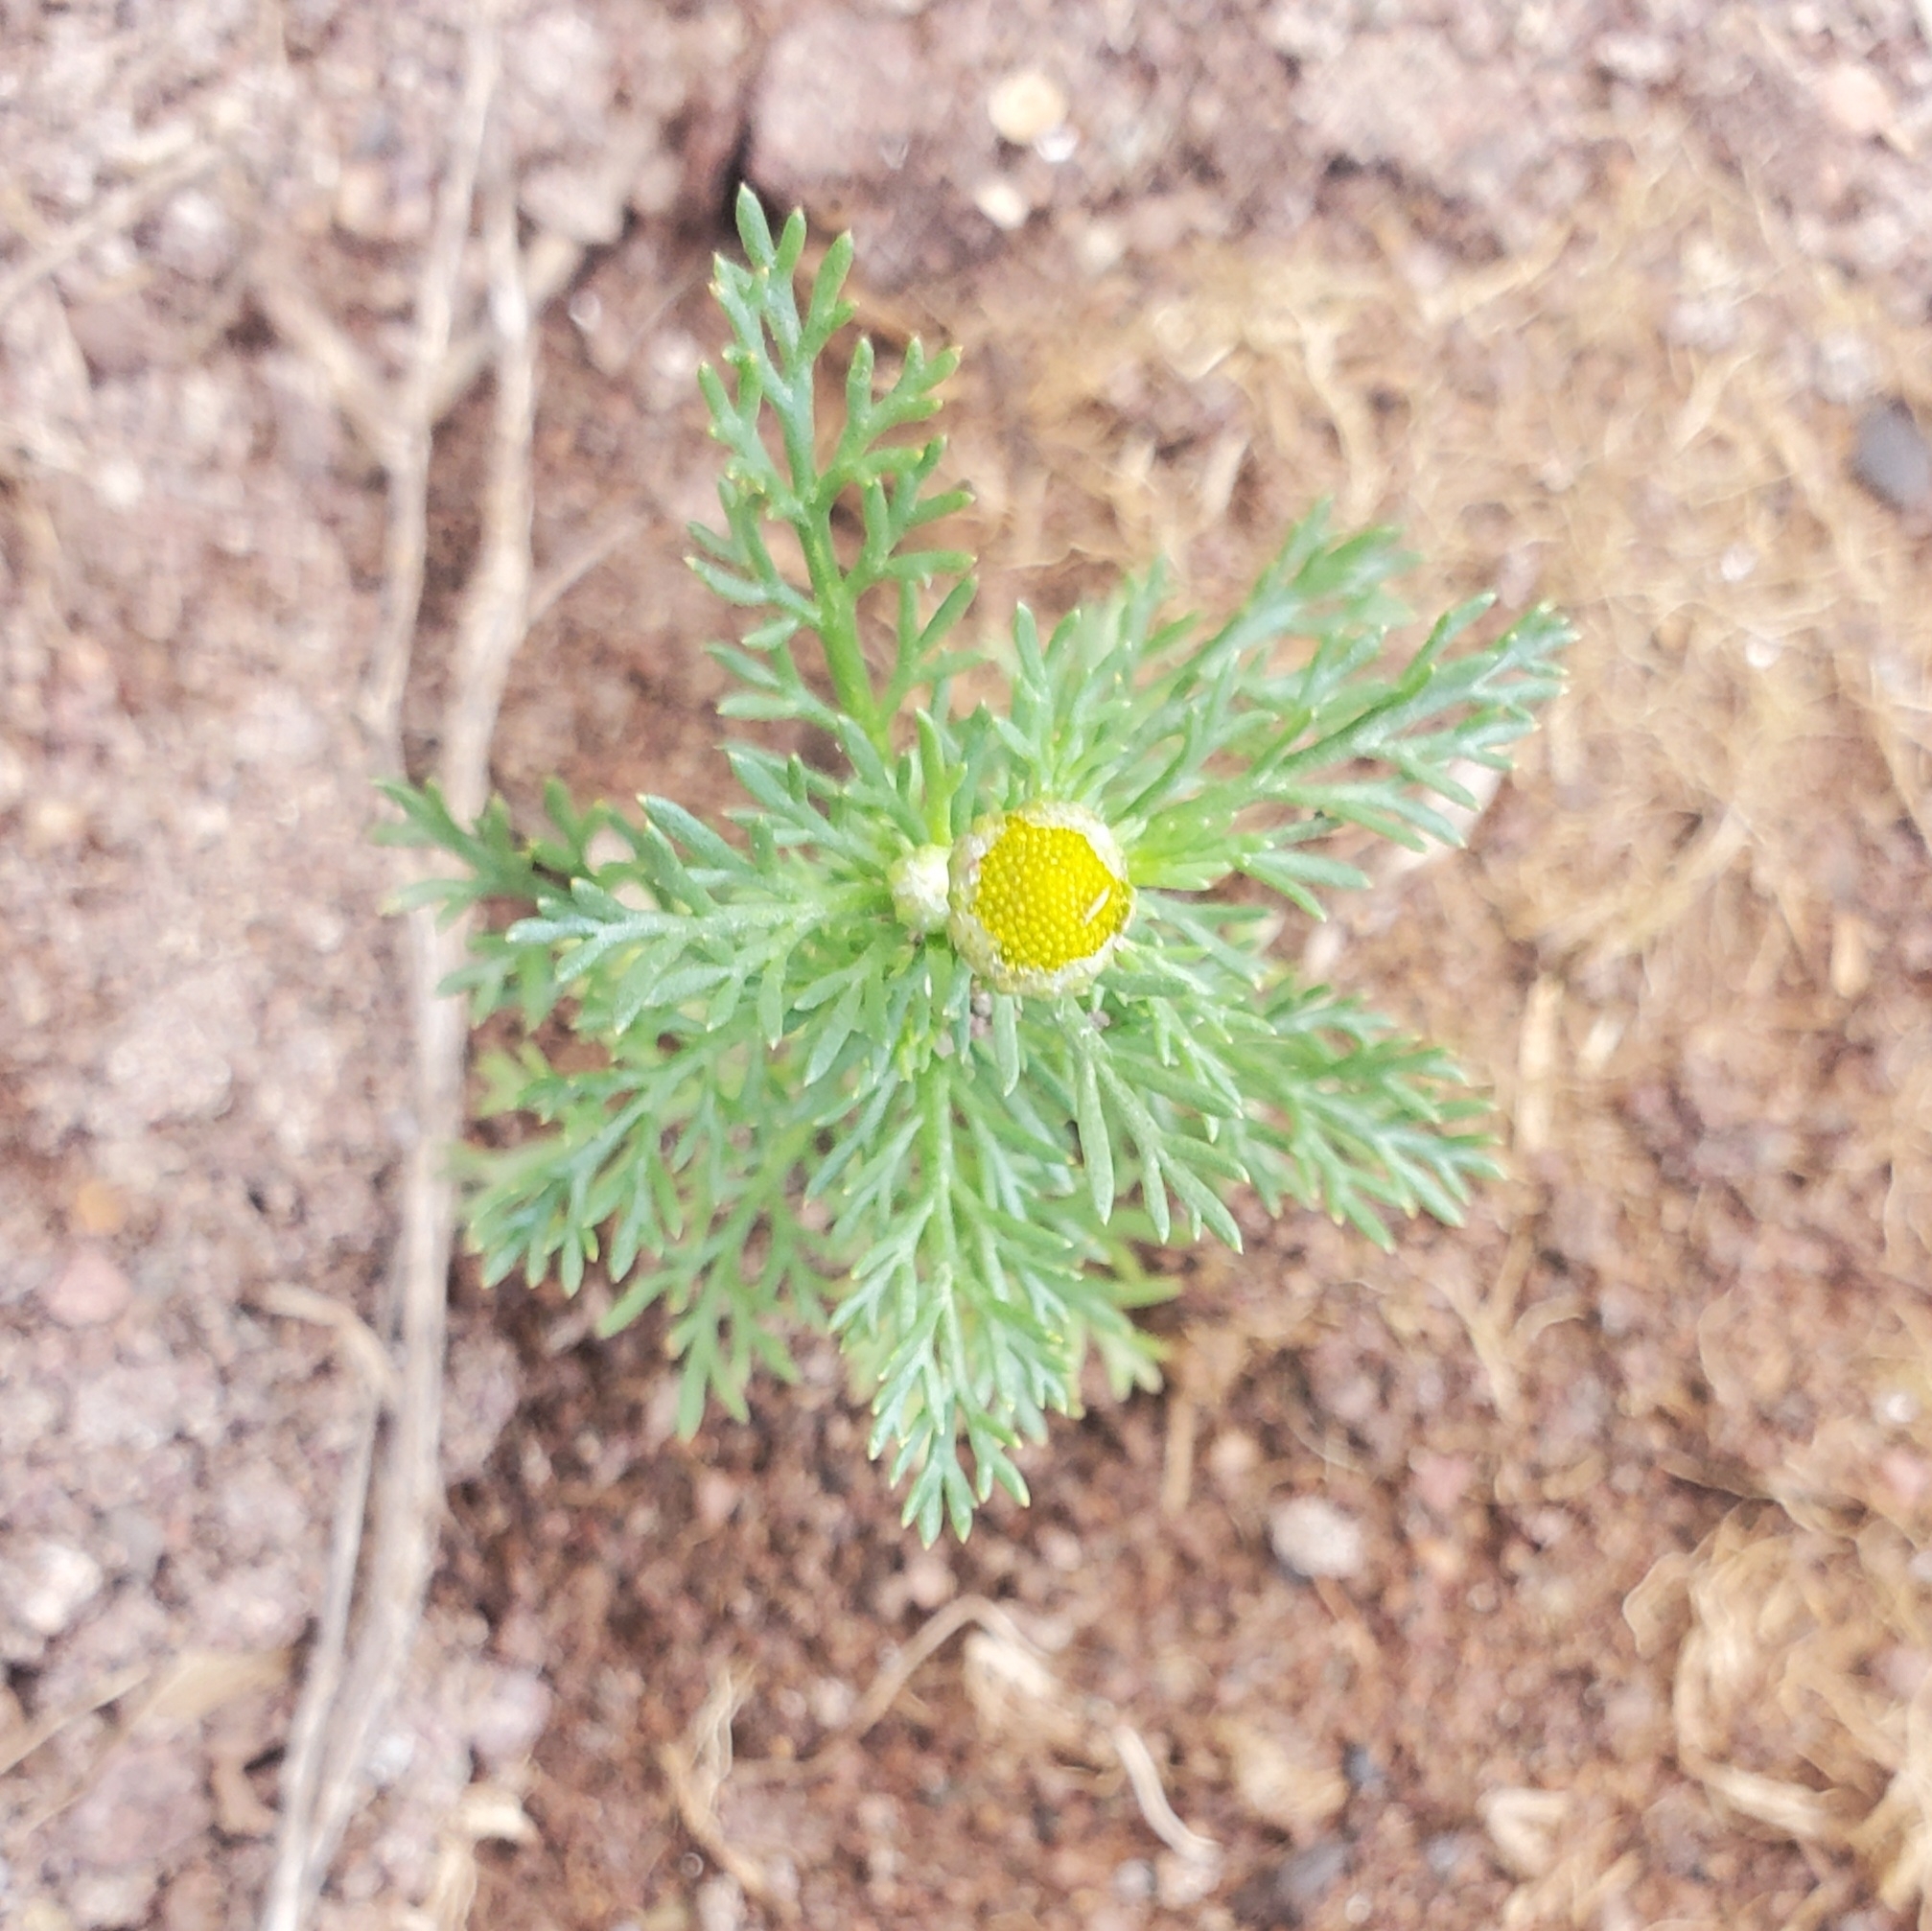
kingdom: Plantae
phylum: Tracheophyta
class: Magnoliopsida
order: Asterales
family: Asteraceae
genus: Matricaria
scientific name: Matricaria discoidea
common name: Disc mayweed
